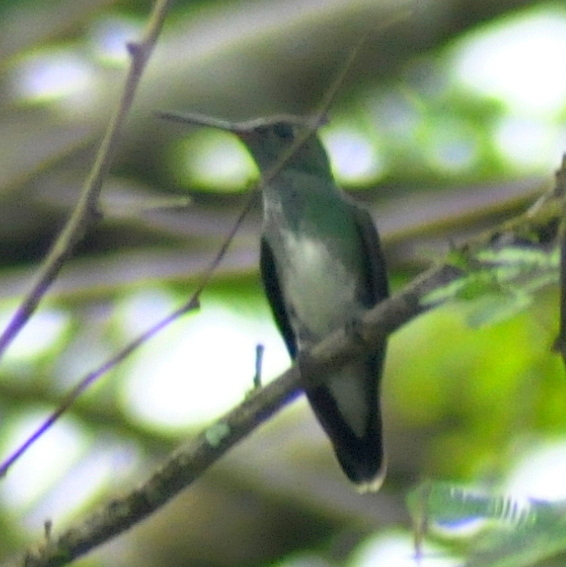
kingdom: Animalia
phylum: Chordata
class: Aves
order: Apodiformes
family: Trochilidae
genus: Chionomesa
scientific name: Chionomesa fimbriata
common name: Glittering-throated emerald
